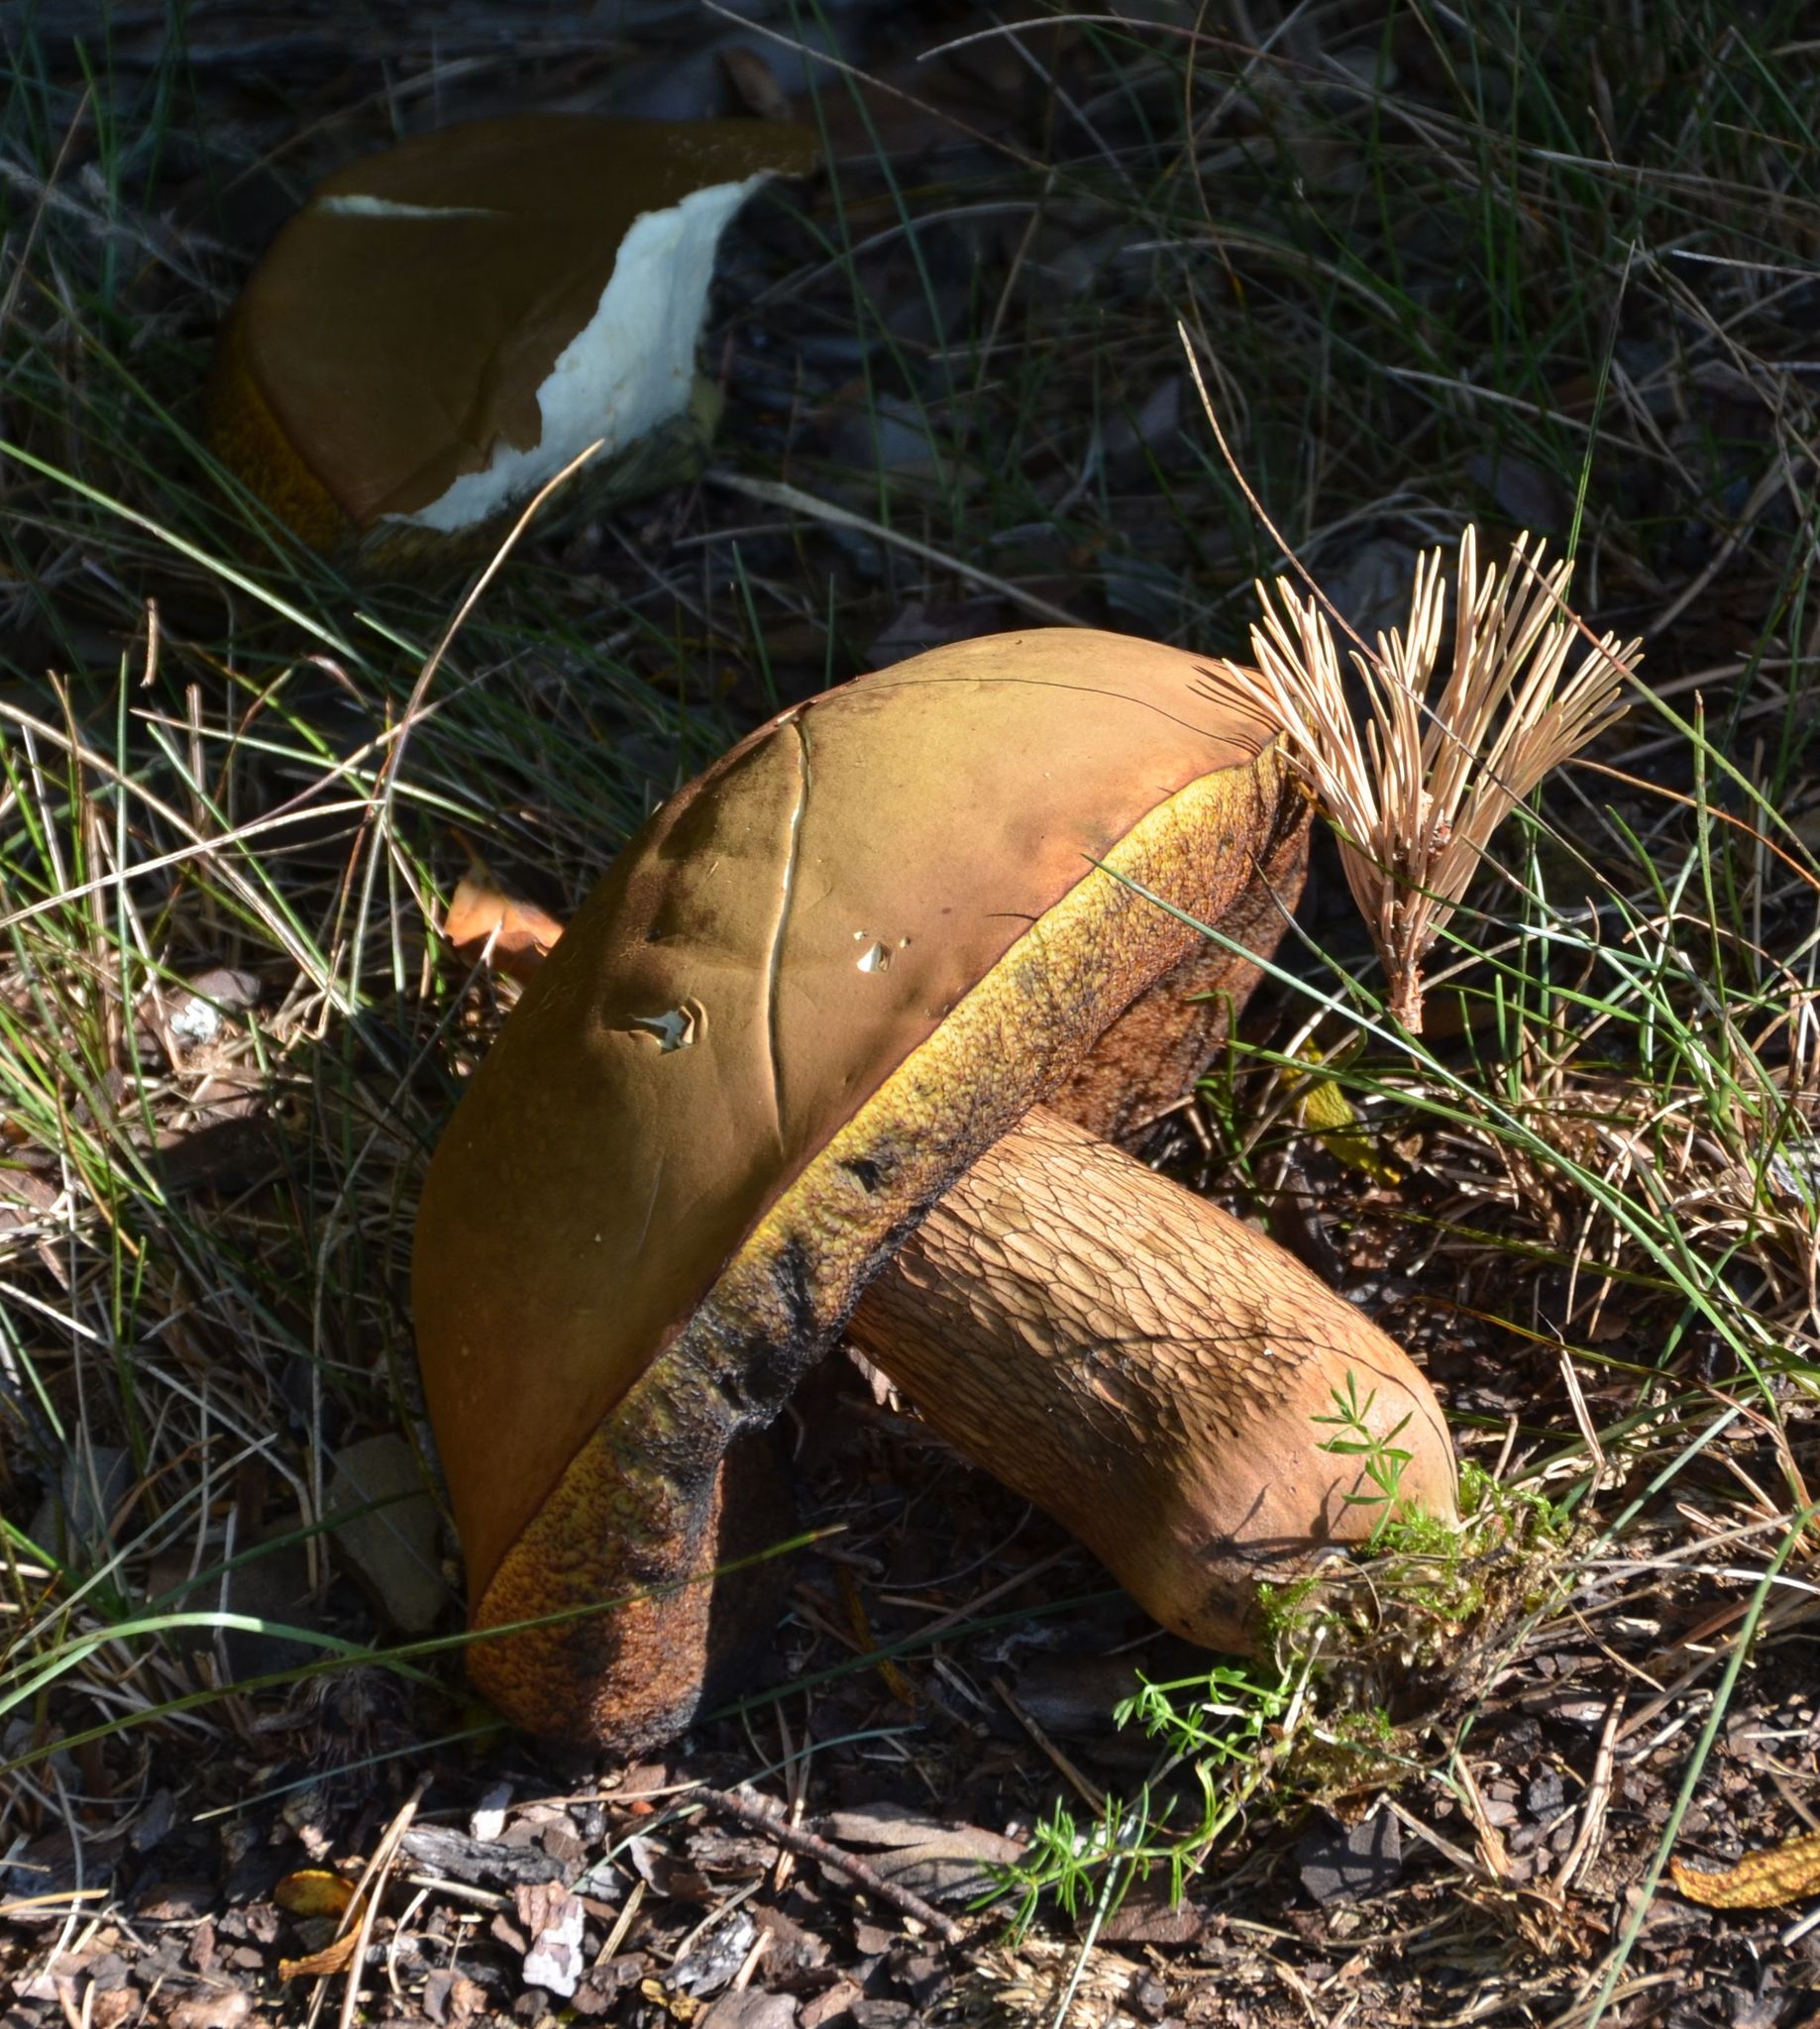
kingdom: Fungi
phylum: Basidiomycota
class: Agaricomycetes
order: Boletales
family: Boletaceae
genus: Tylopilus
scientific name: Tylopilus felleus
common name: Bitter bolete
